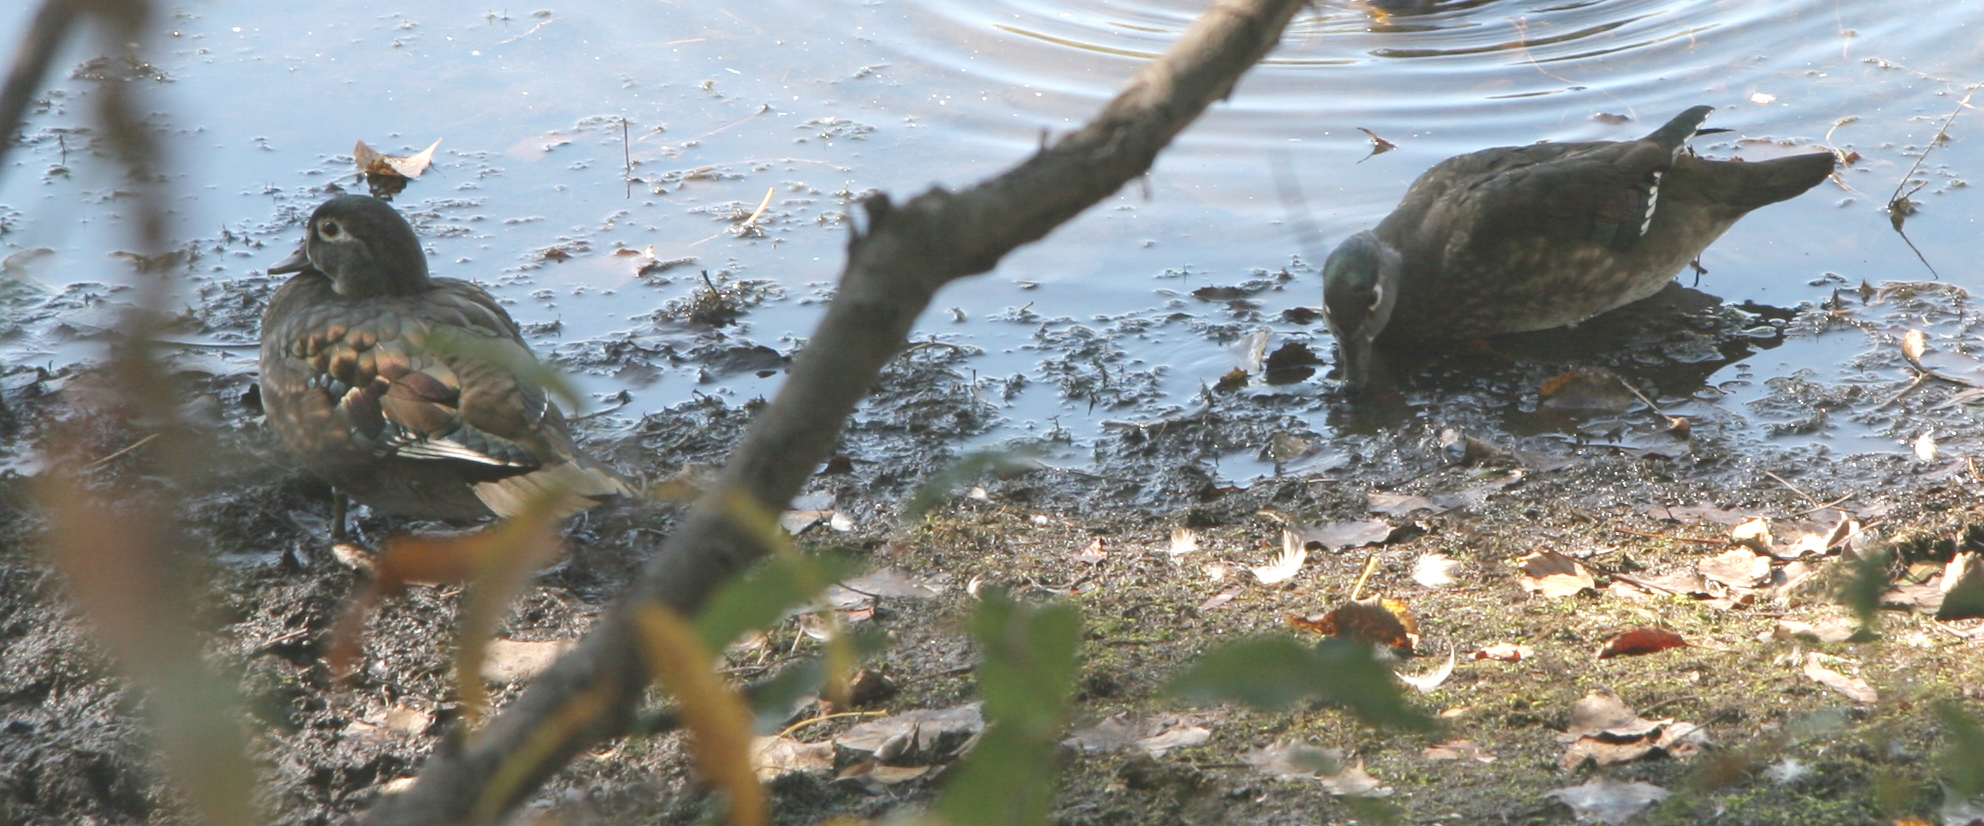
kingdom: Animalia
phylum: Chordata
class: Aves
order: Anseriformes
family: Anatidae
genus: Aix
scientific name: Aix sponsa
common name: Wood duck
